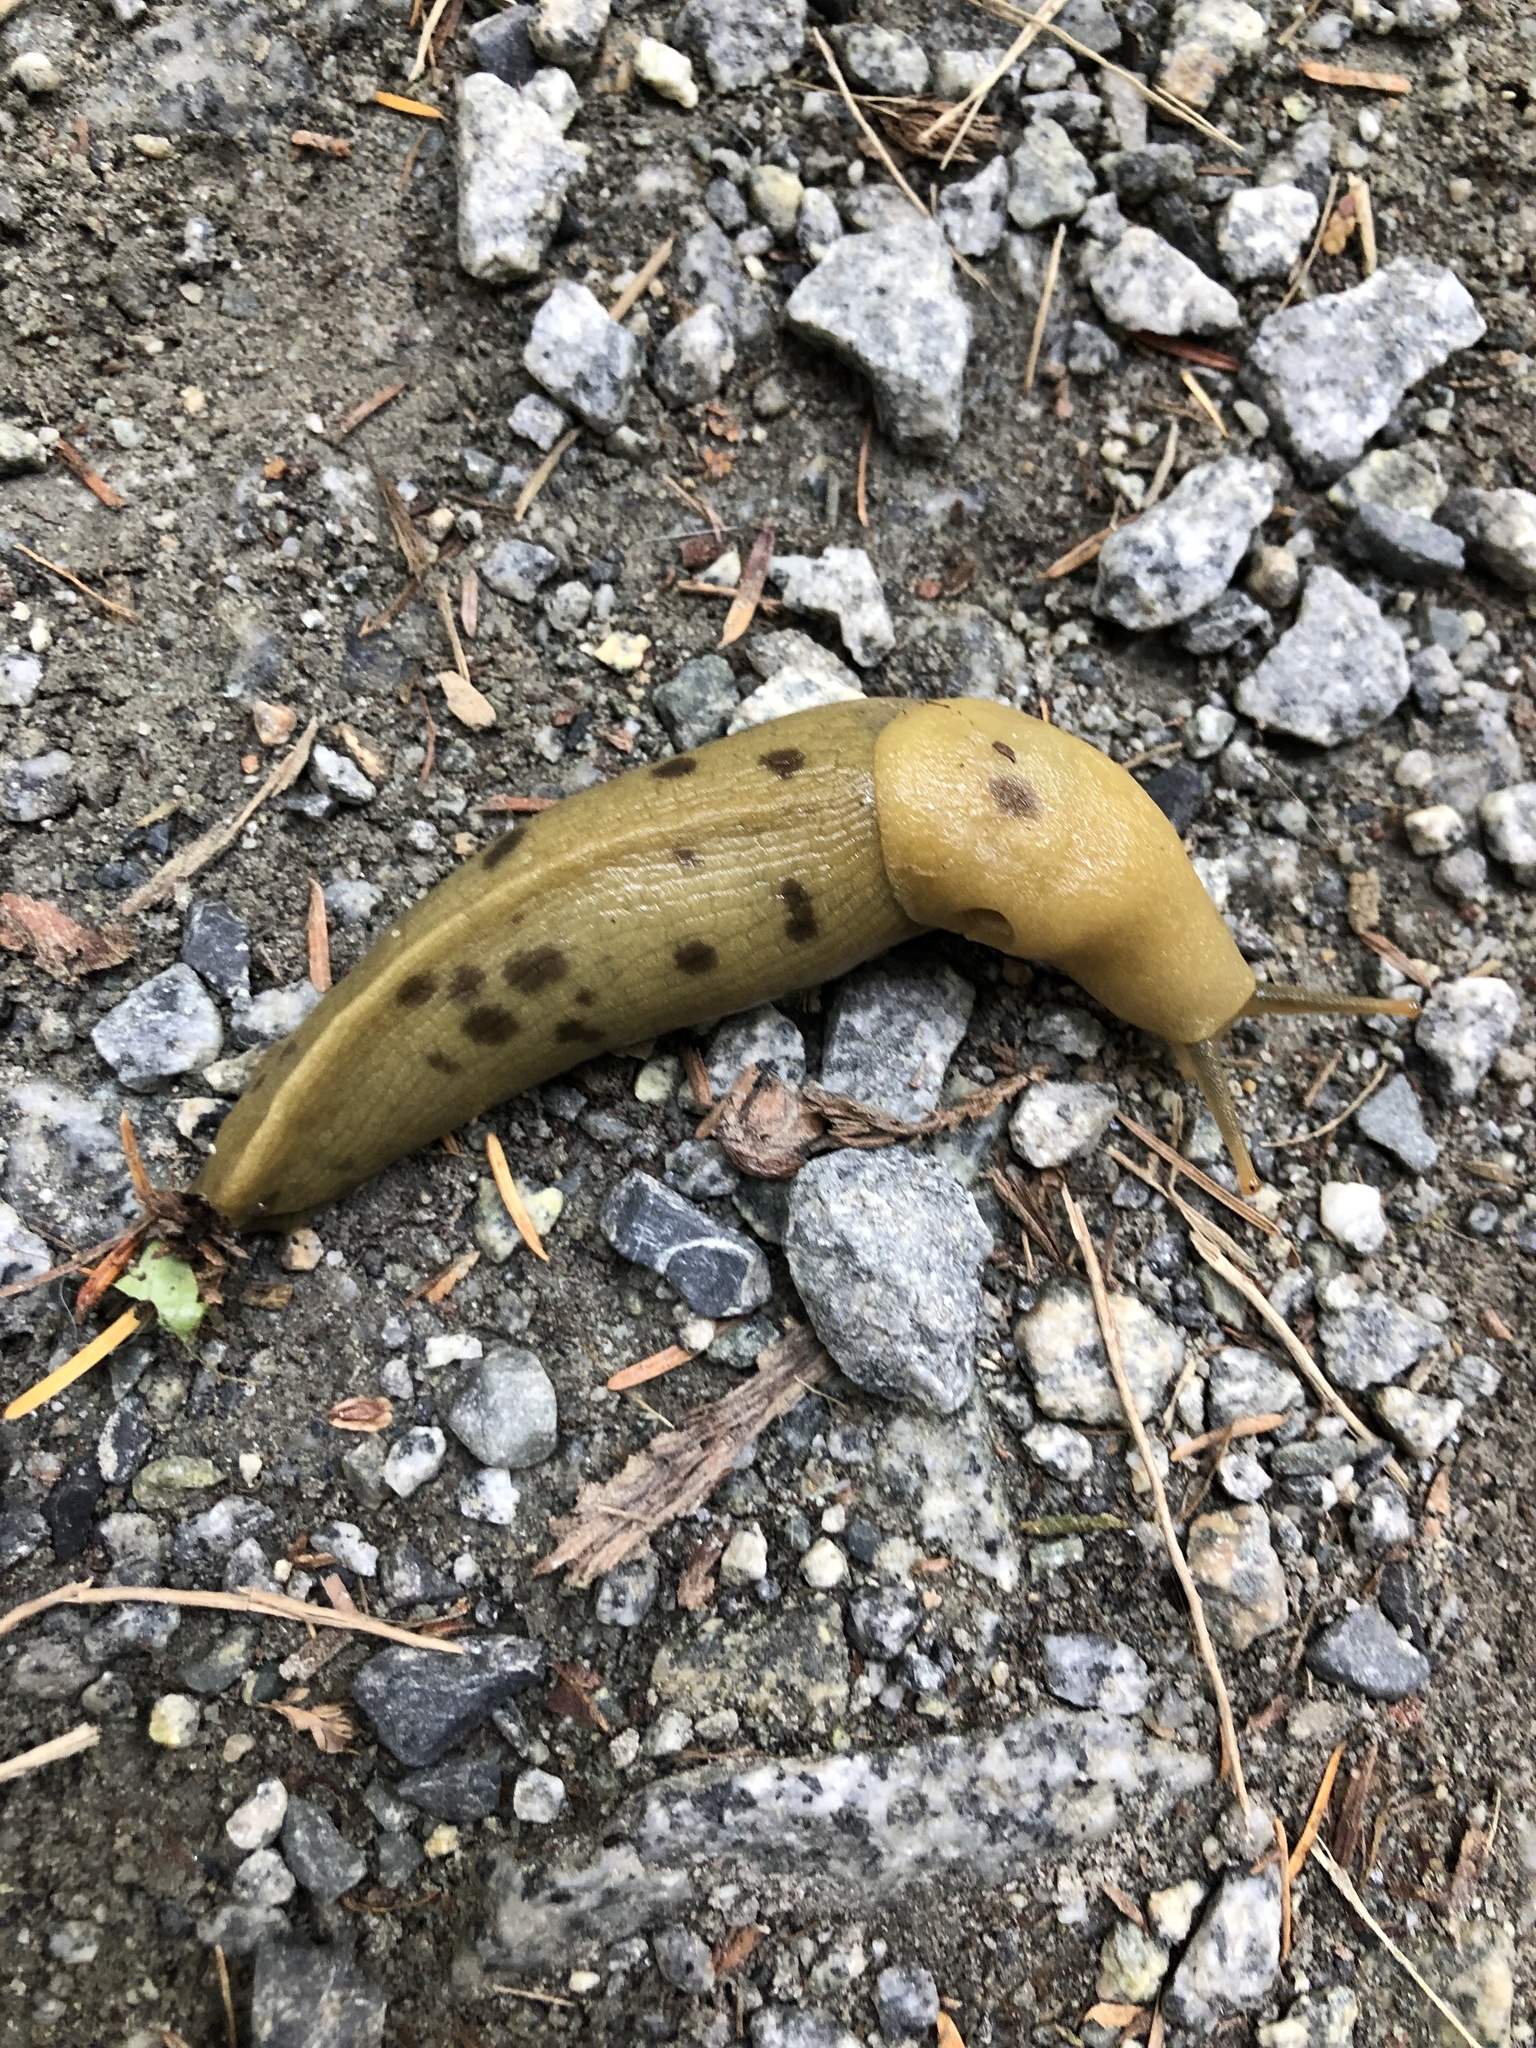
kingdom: Animalia
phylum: Mollusca
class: Gastropoda
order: Stylommatophora
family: Ariolimacidae
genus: Ariolimax
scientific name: Ariolimax columbianus
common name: Pacific banana slug
